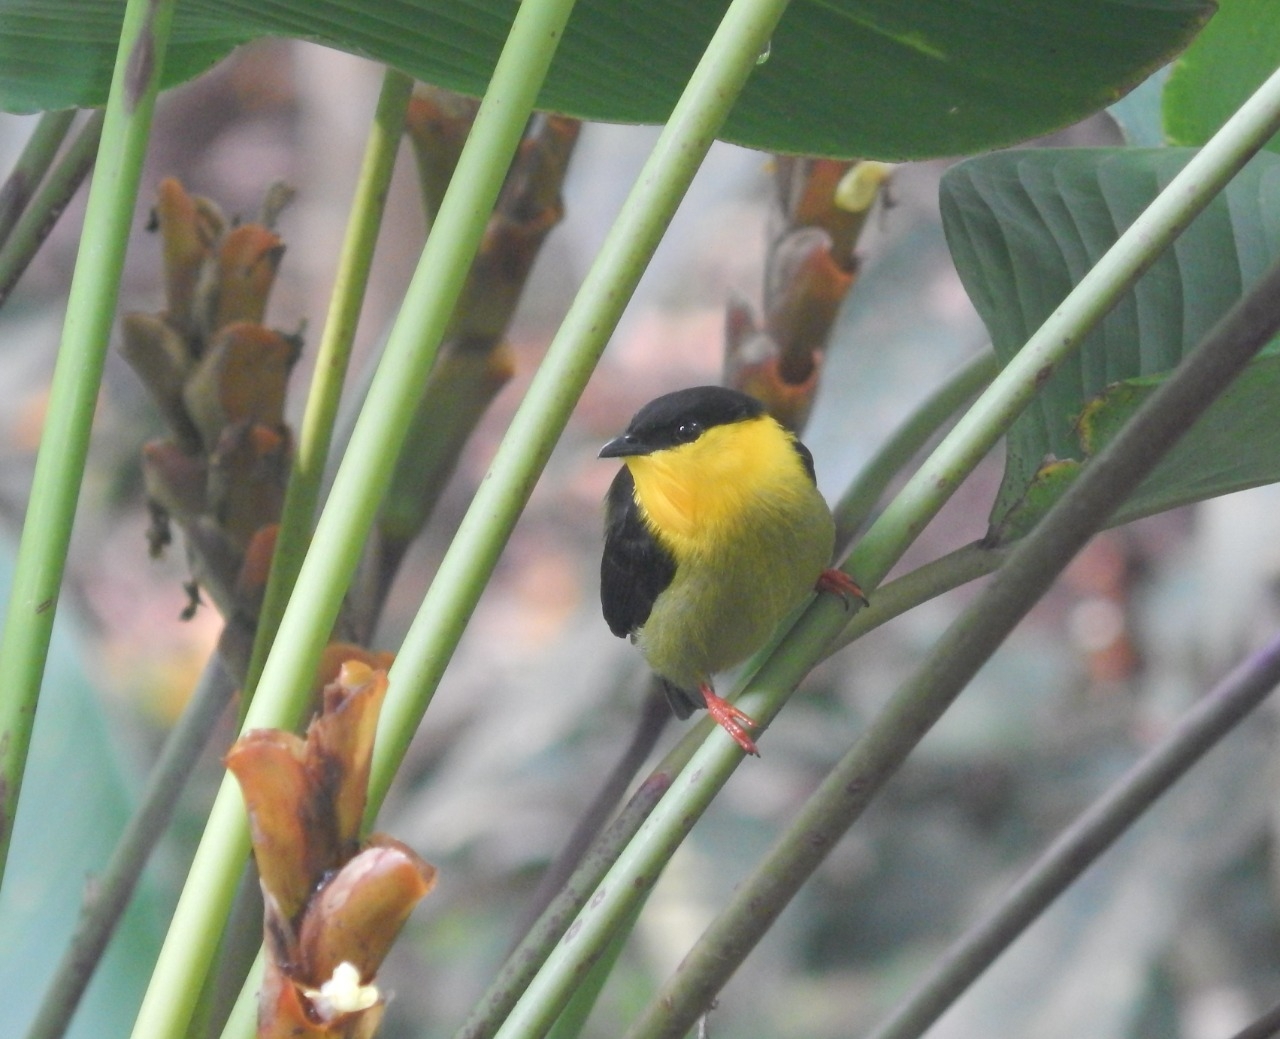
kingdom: Animalia
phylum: Chordata
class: Aves
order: Passeriformes
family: Pipridae
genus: Manacus
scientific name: Manacus vitellinus
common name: Golden-collared manakin
